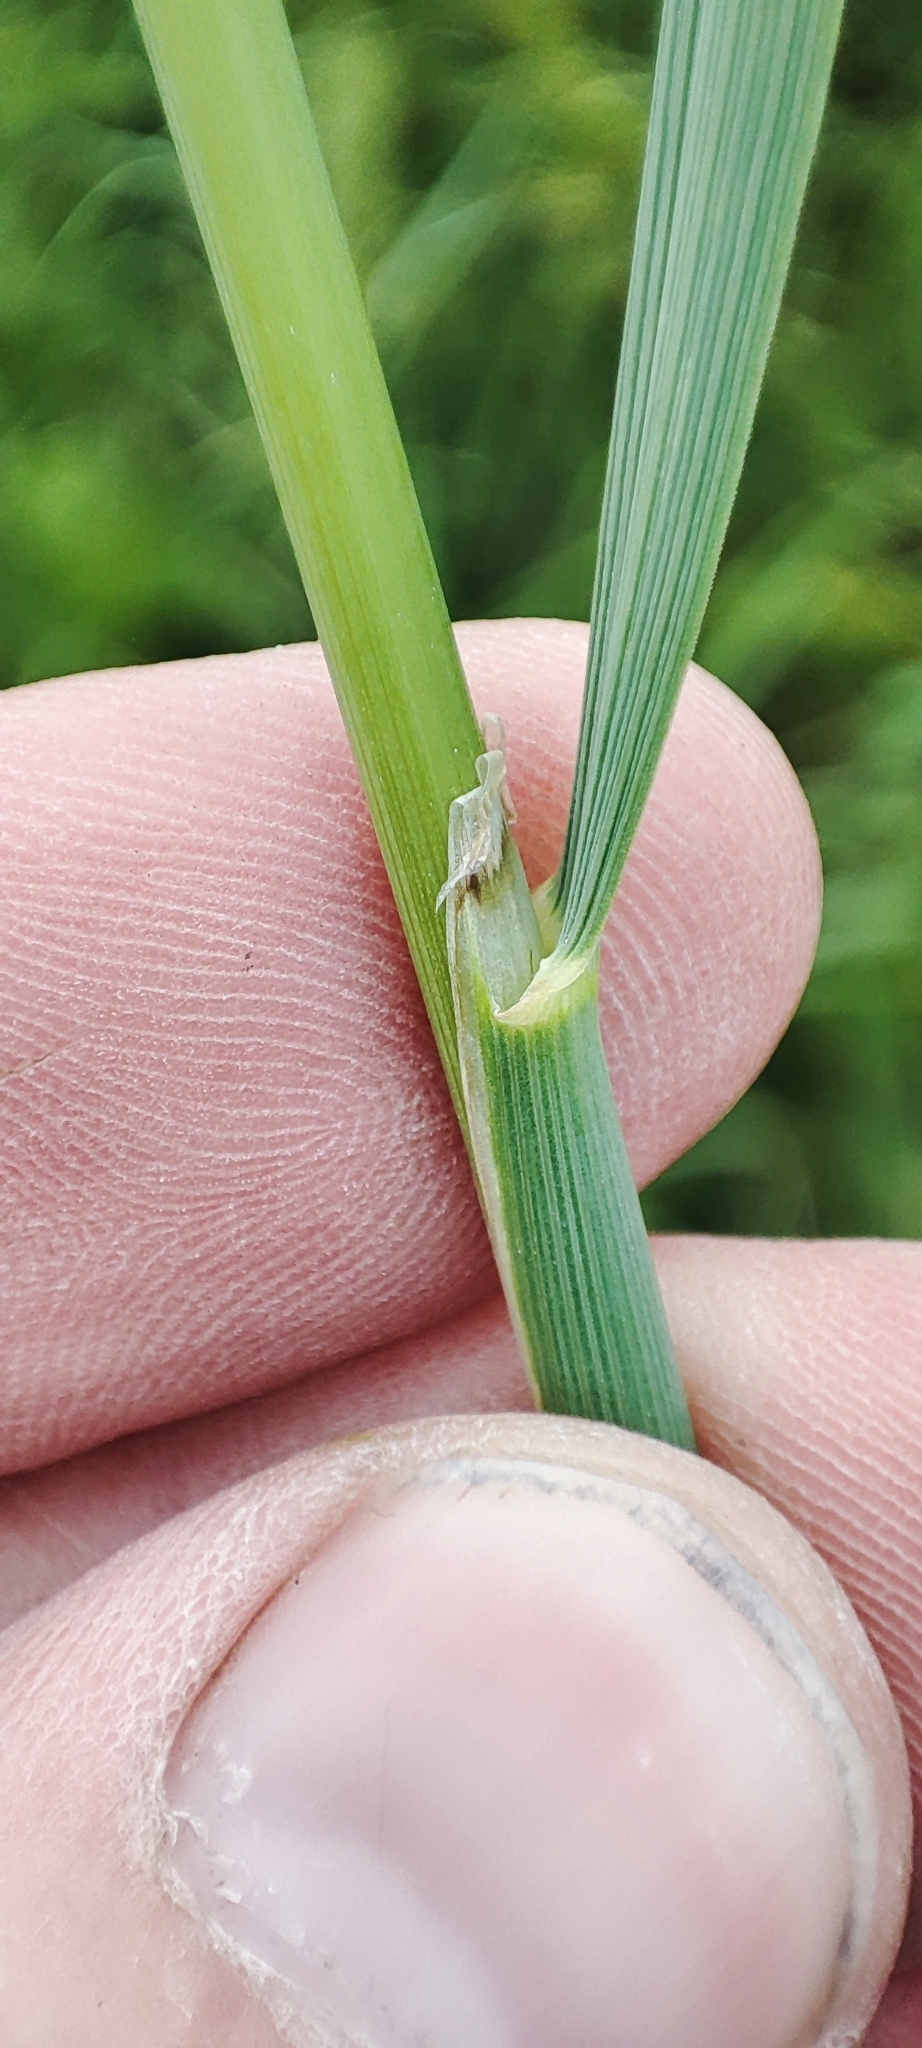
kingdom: Plantae
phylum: Tracheophyta
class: Liliopsida
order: Poales
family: Poaceae
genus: Calamagrostis
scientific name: Calamagrostis epigejos
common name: Wood small-reed
